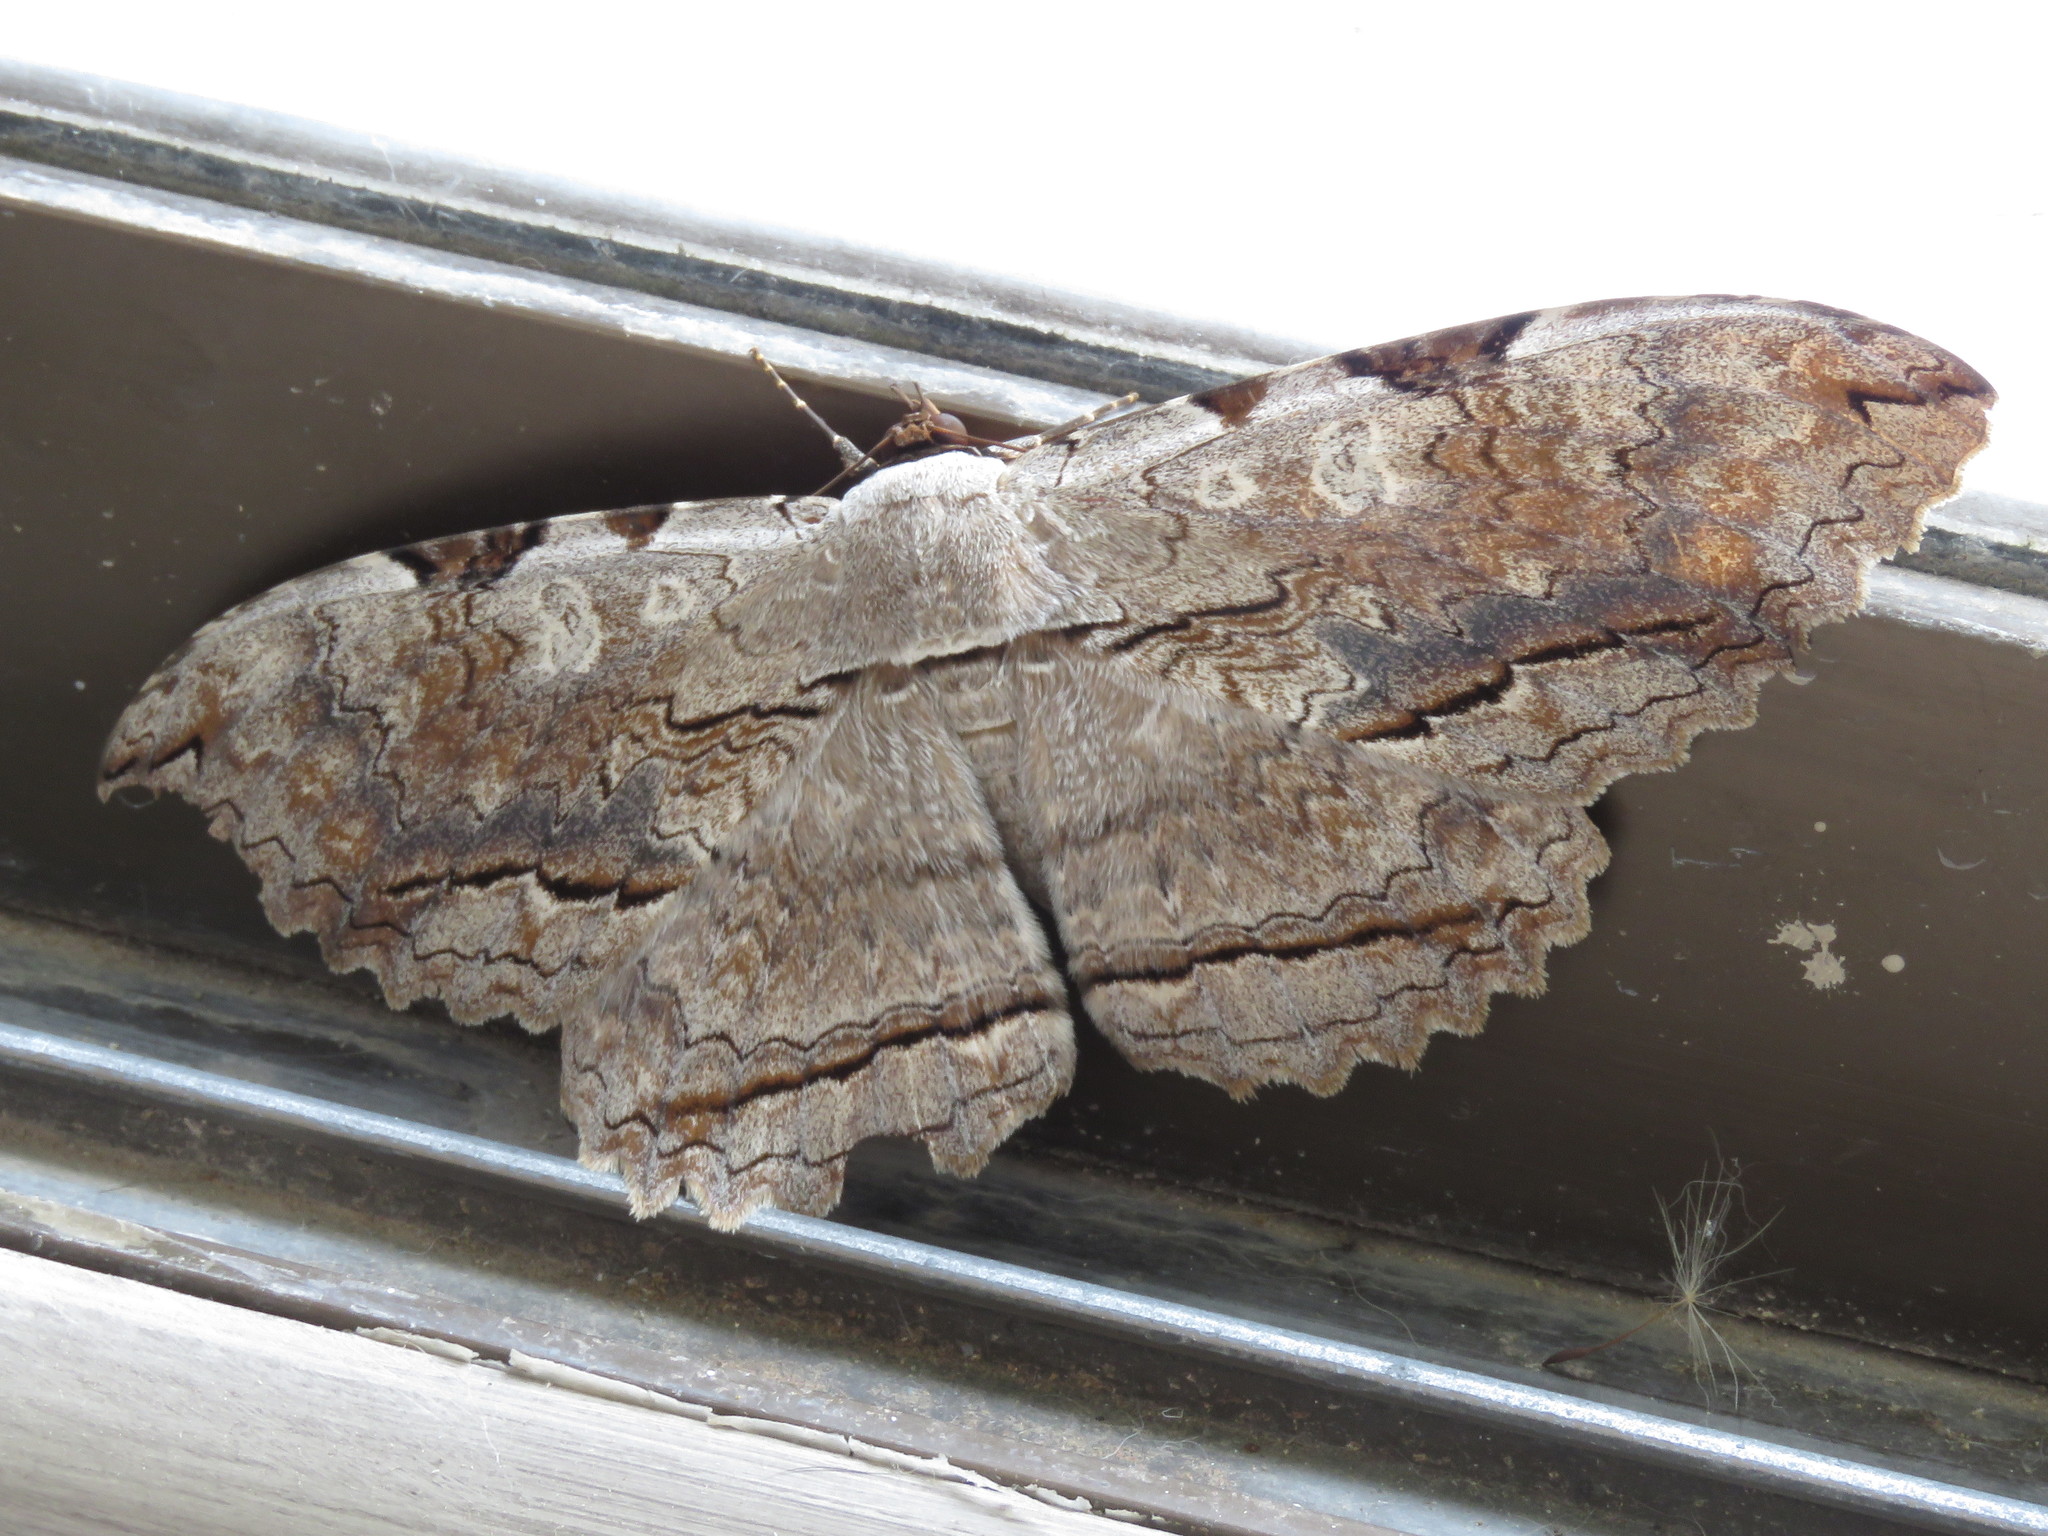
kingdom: Animalia
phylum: Arthropoda
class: Insecta
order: Lepidoptera
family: Erebidae
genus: Thysania
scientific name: Thysania zenobia
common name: Owl moth
